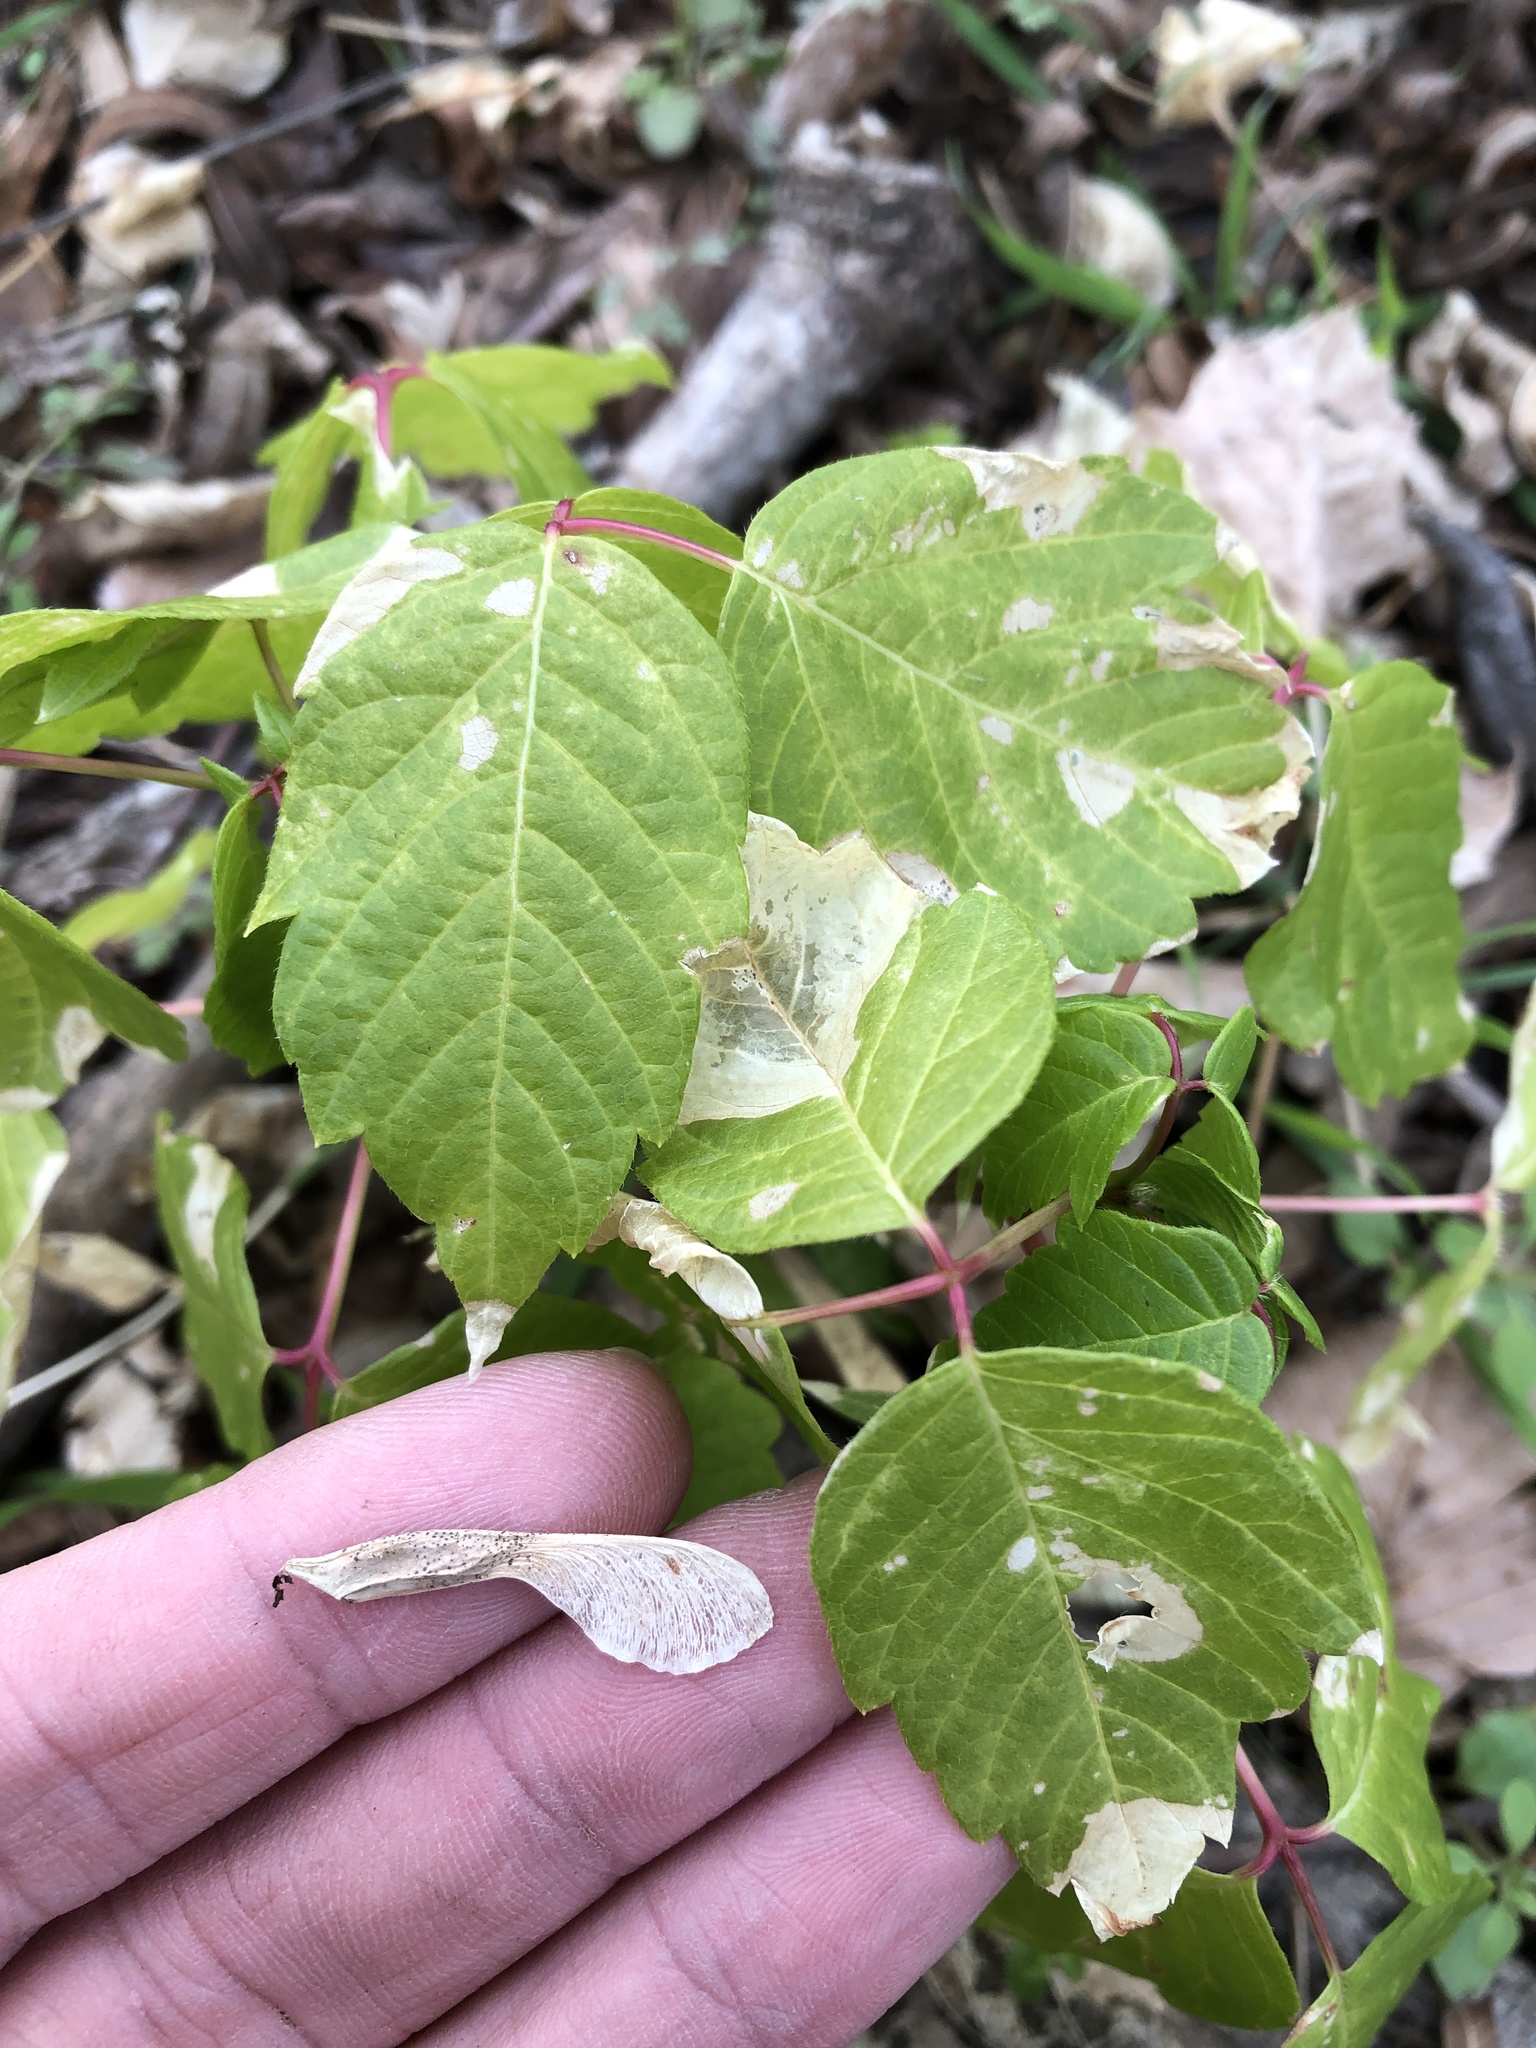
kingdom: Plantae
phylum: Tracheophyta
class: Magnoliopsida
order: Sapindales
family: Sapindaceae
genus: Acer
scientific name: Acer negundo
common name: Ashleaf maple
